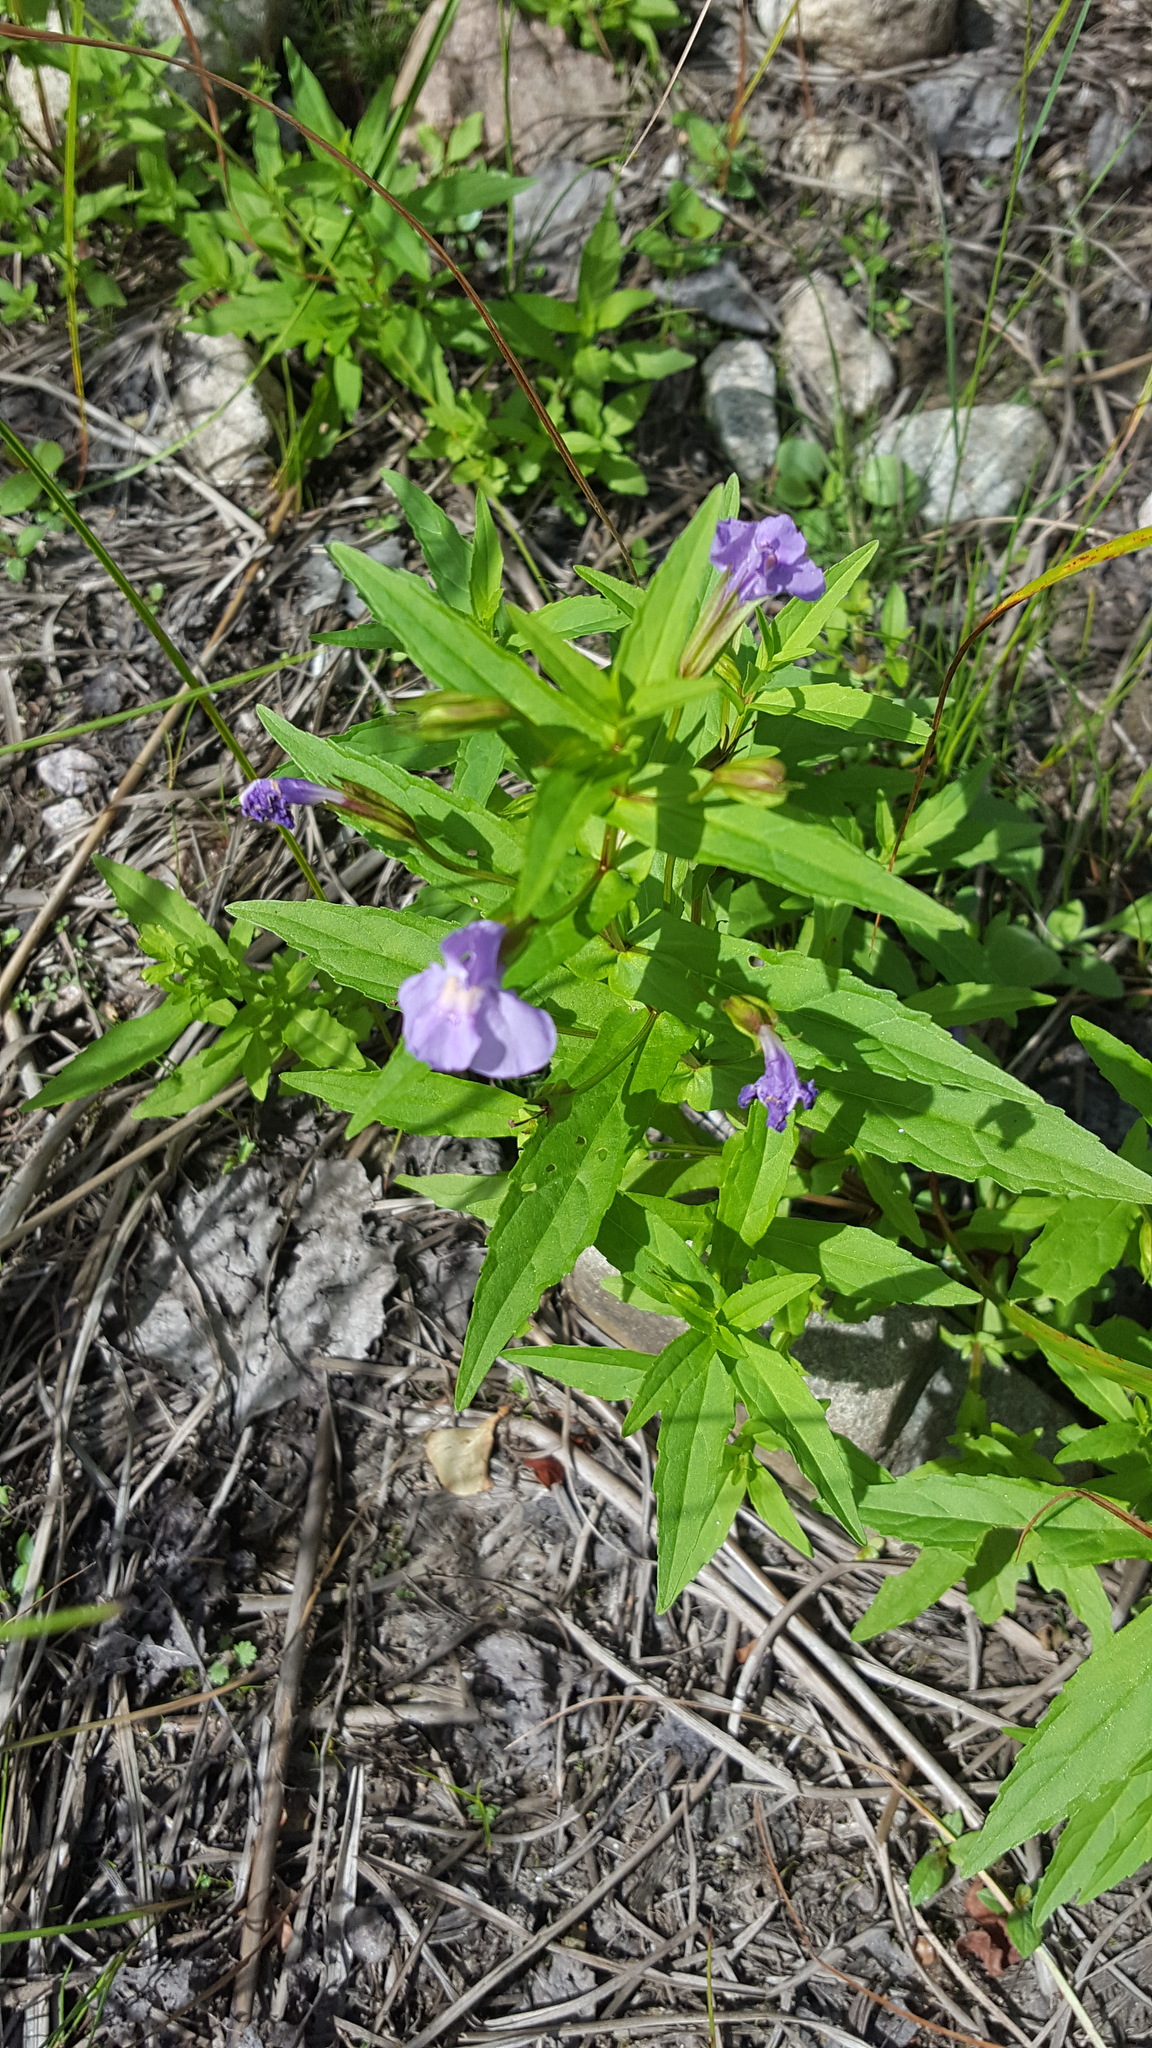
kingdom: Plantae
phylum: Tracheophyta
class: Magnoliopsida
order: Lamiales
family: Phrymaceae
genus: Mimulus
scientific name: Mimulus ringens
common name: Allegheny monkeyflower
